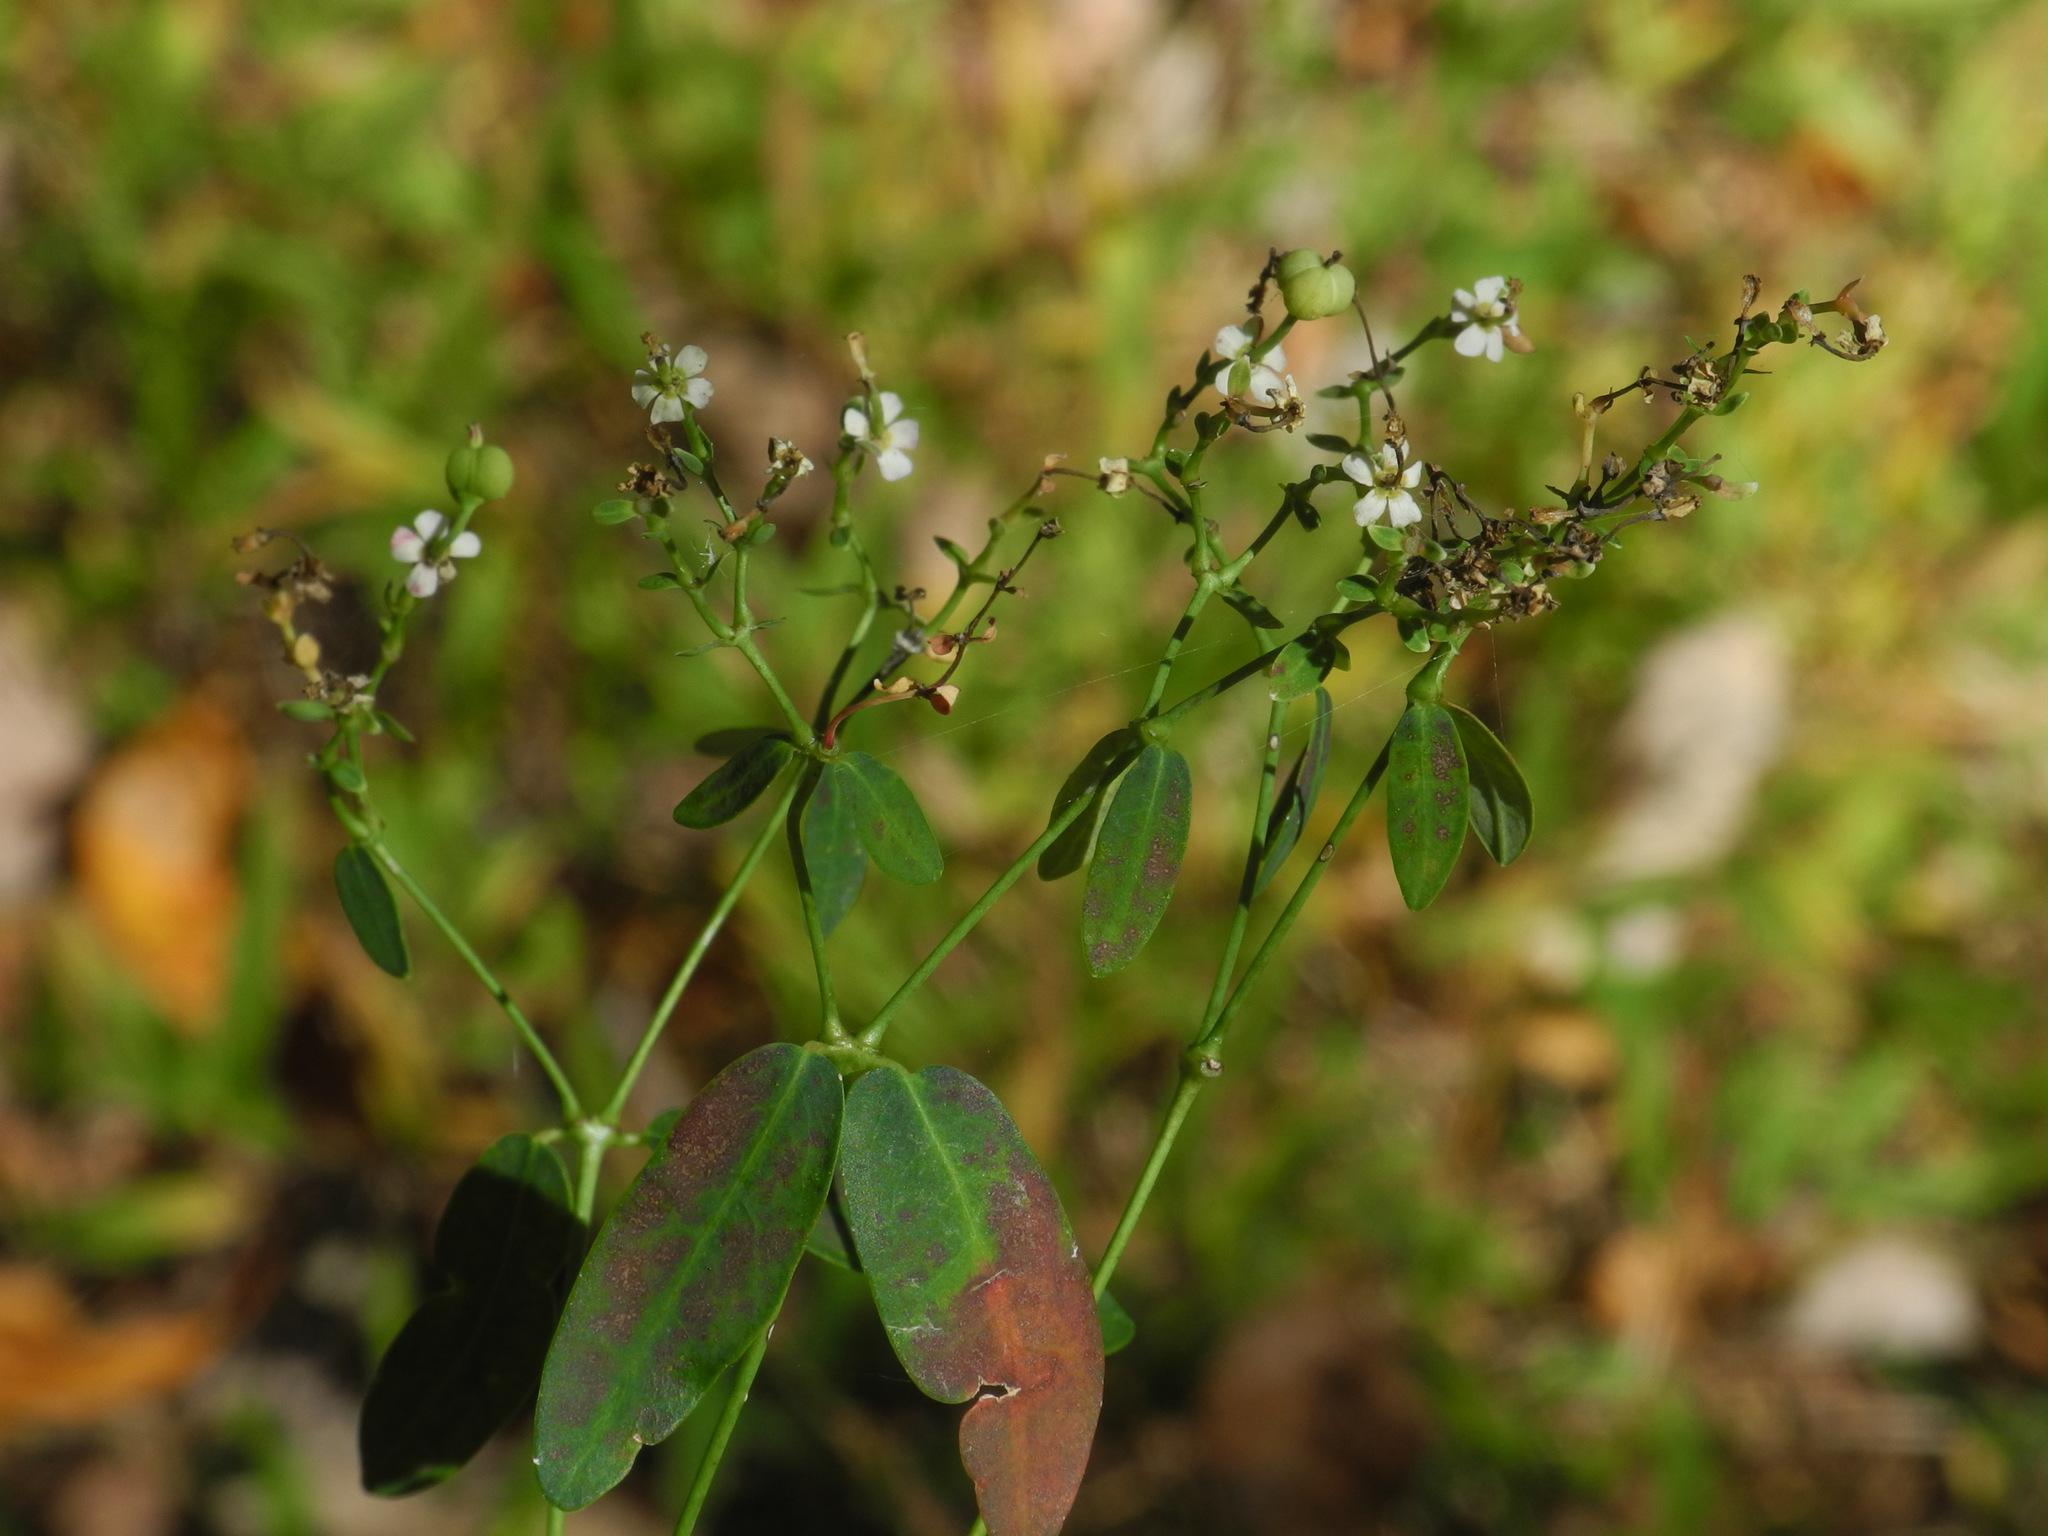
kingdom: Plantae
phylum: Tracheophyta
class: Magnoliopsida
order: Malpighiales
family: Euphorbiaceae
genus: Euphorbia
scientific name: Euphorbia corollata
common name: Flowering spurge
